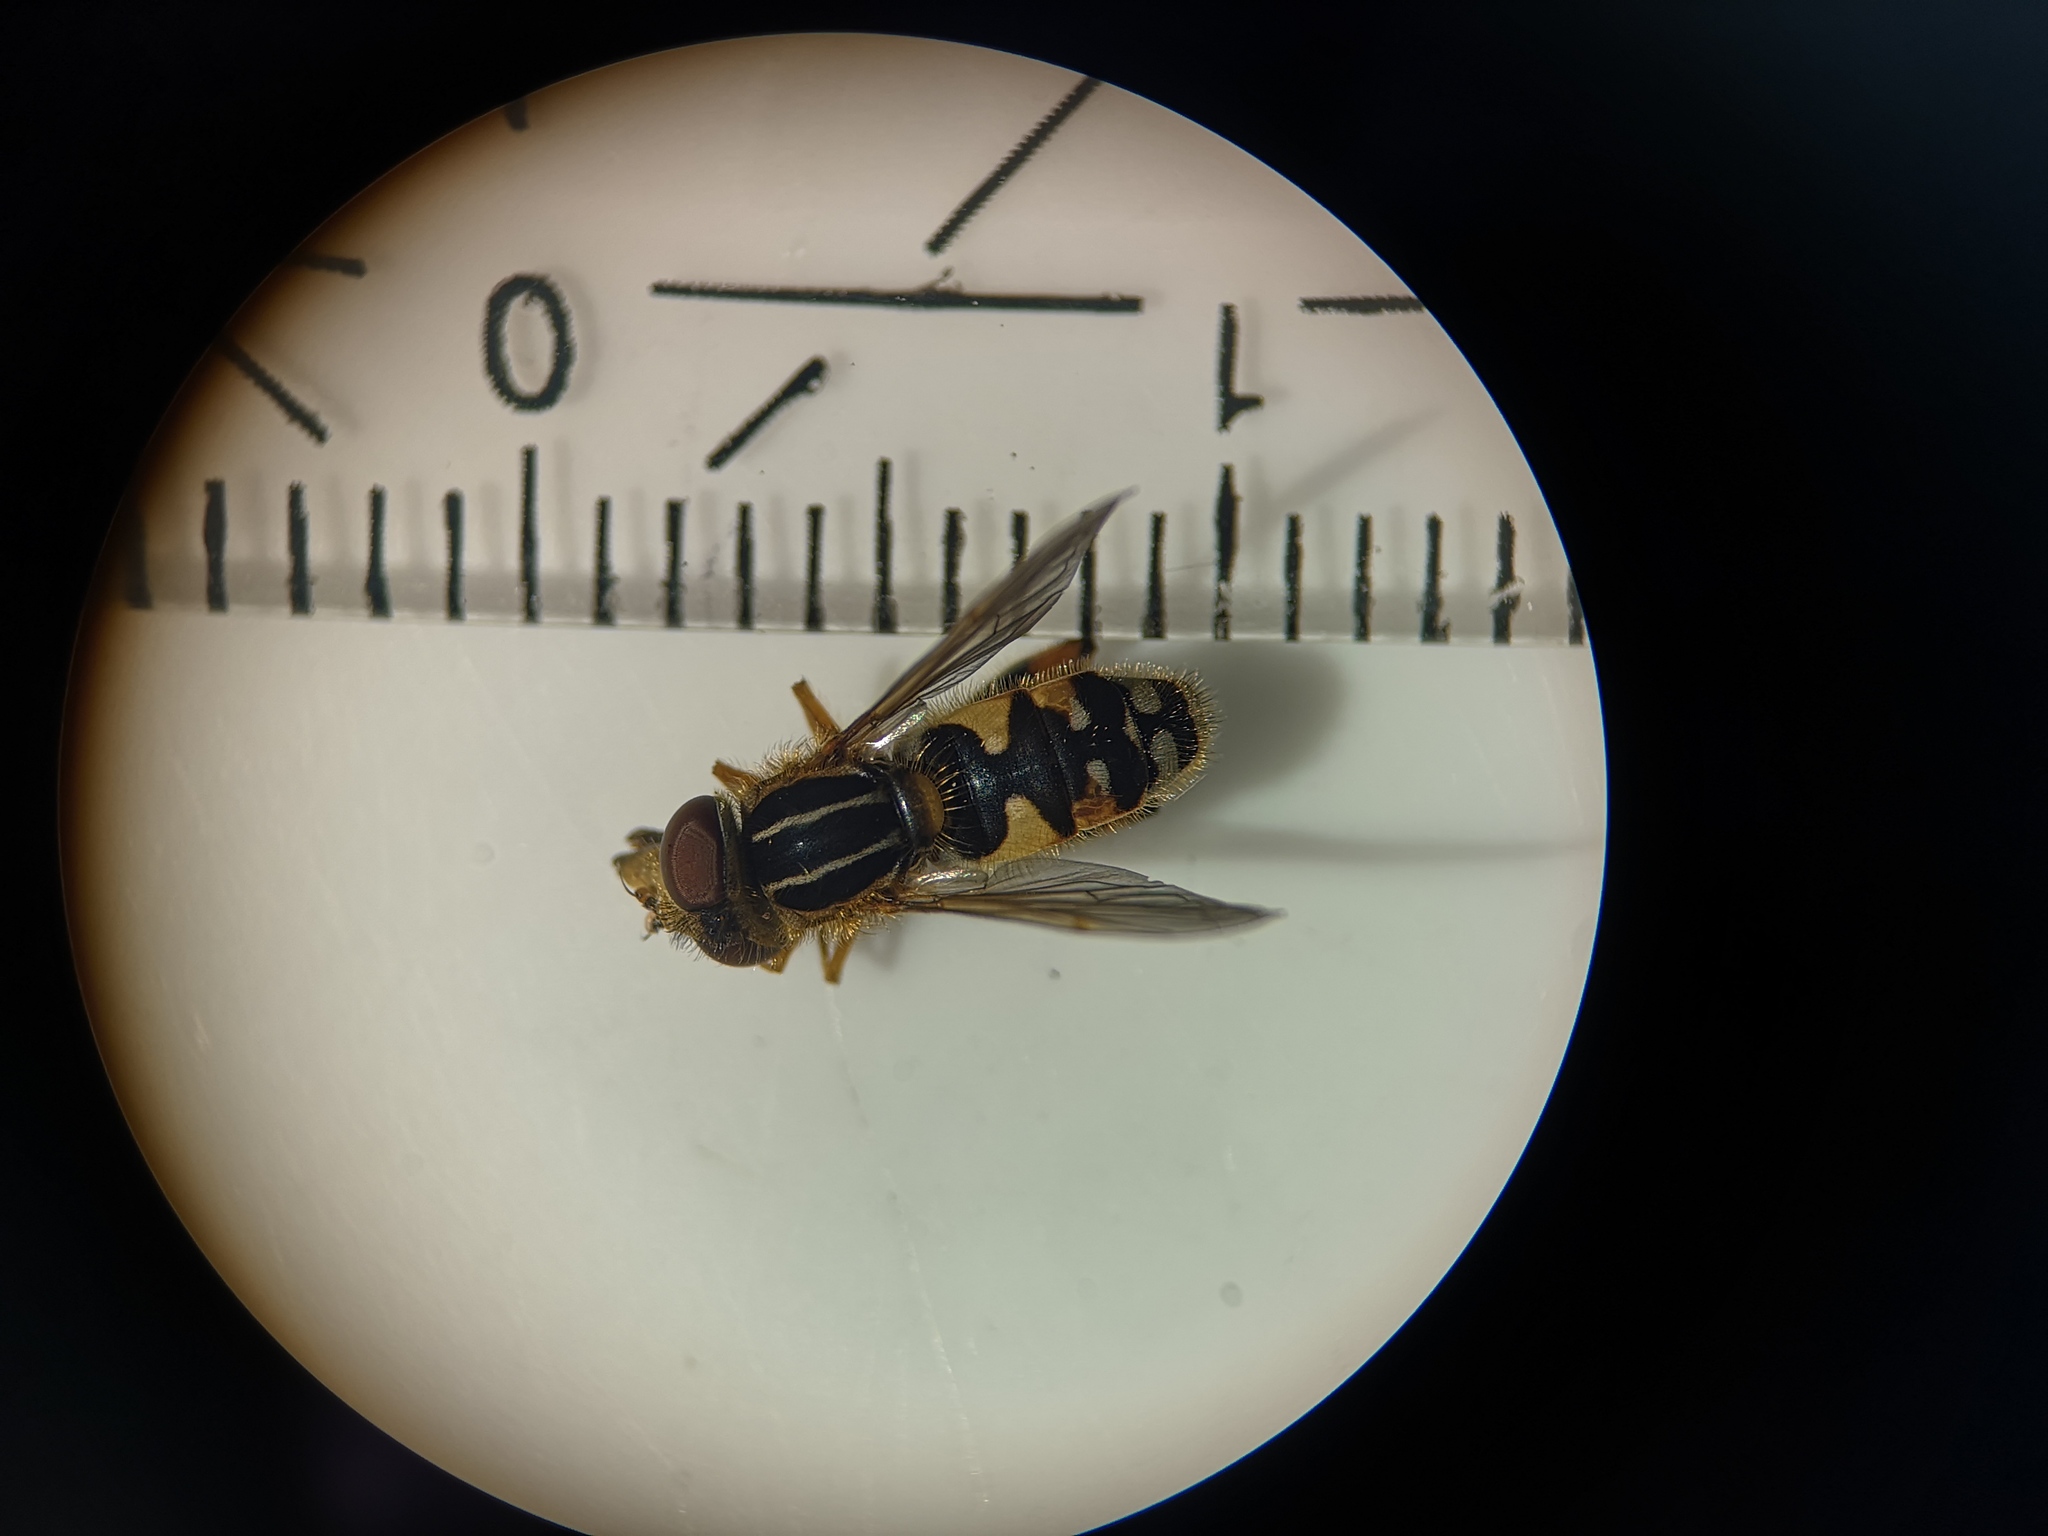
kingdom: Animalia
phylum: Arthropoda
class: Insecta
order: Diptera
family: Syrphidae
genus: Eurimyia
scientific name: Eurimyia lineatus
